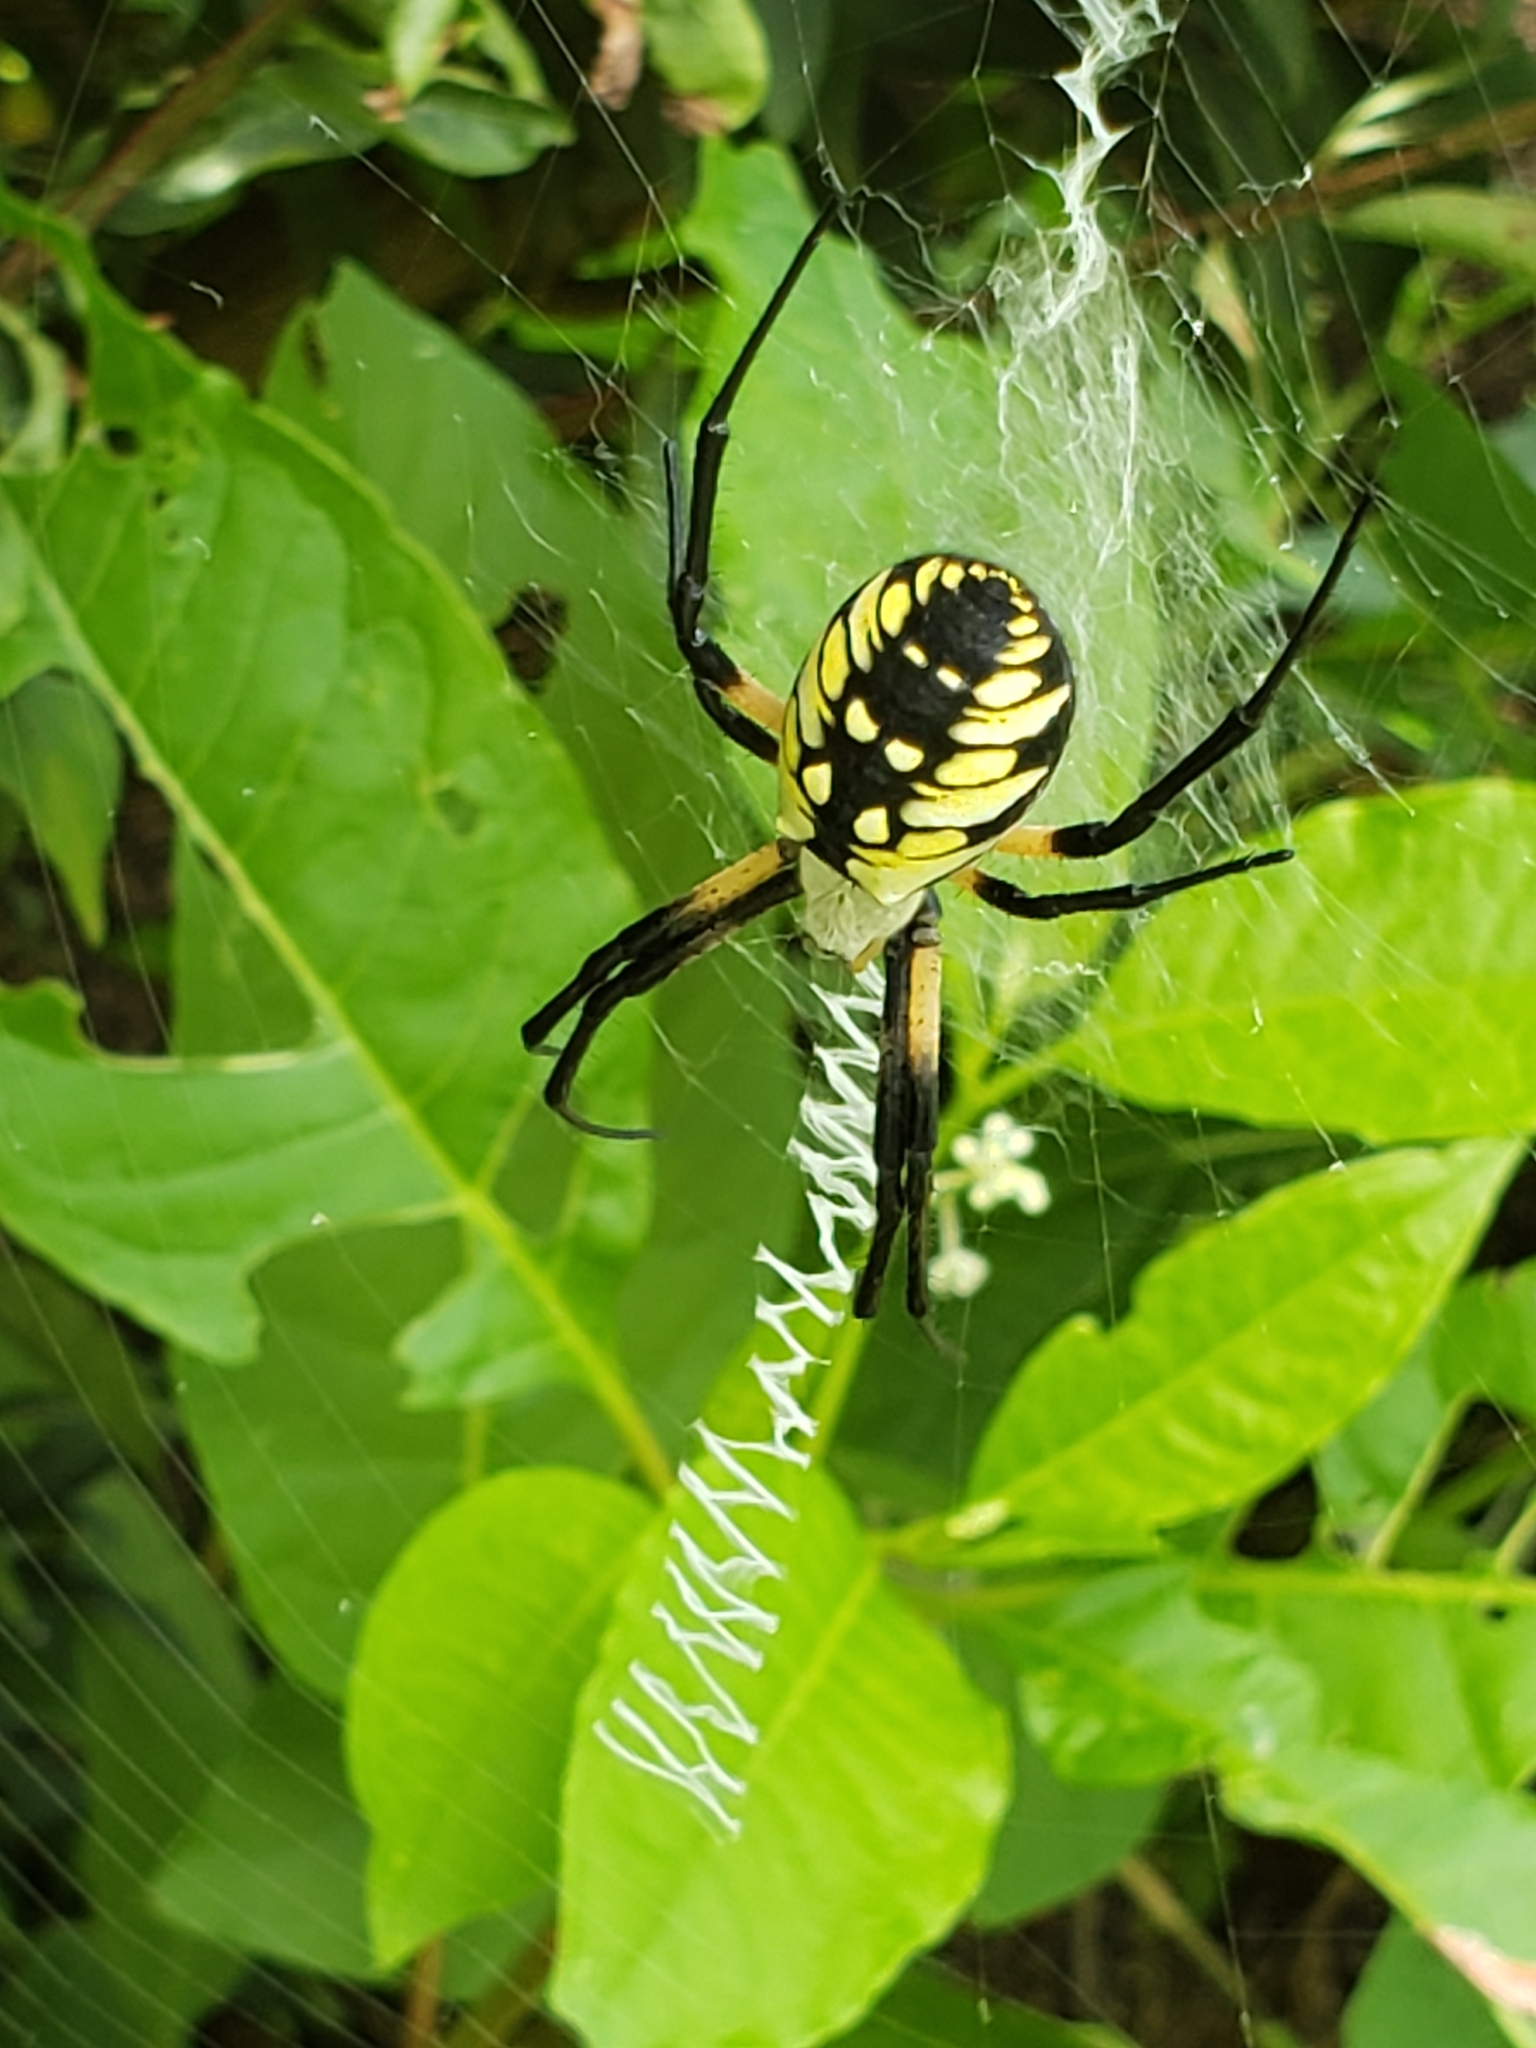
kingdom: Animalia
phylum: Arthropoda
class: Arachnida
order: Araneae
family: Araneidae
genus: Argiope
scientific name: Argiope aurantia
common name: Orb weavers
